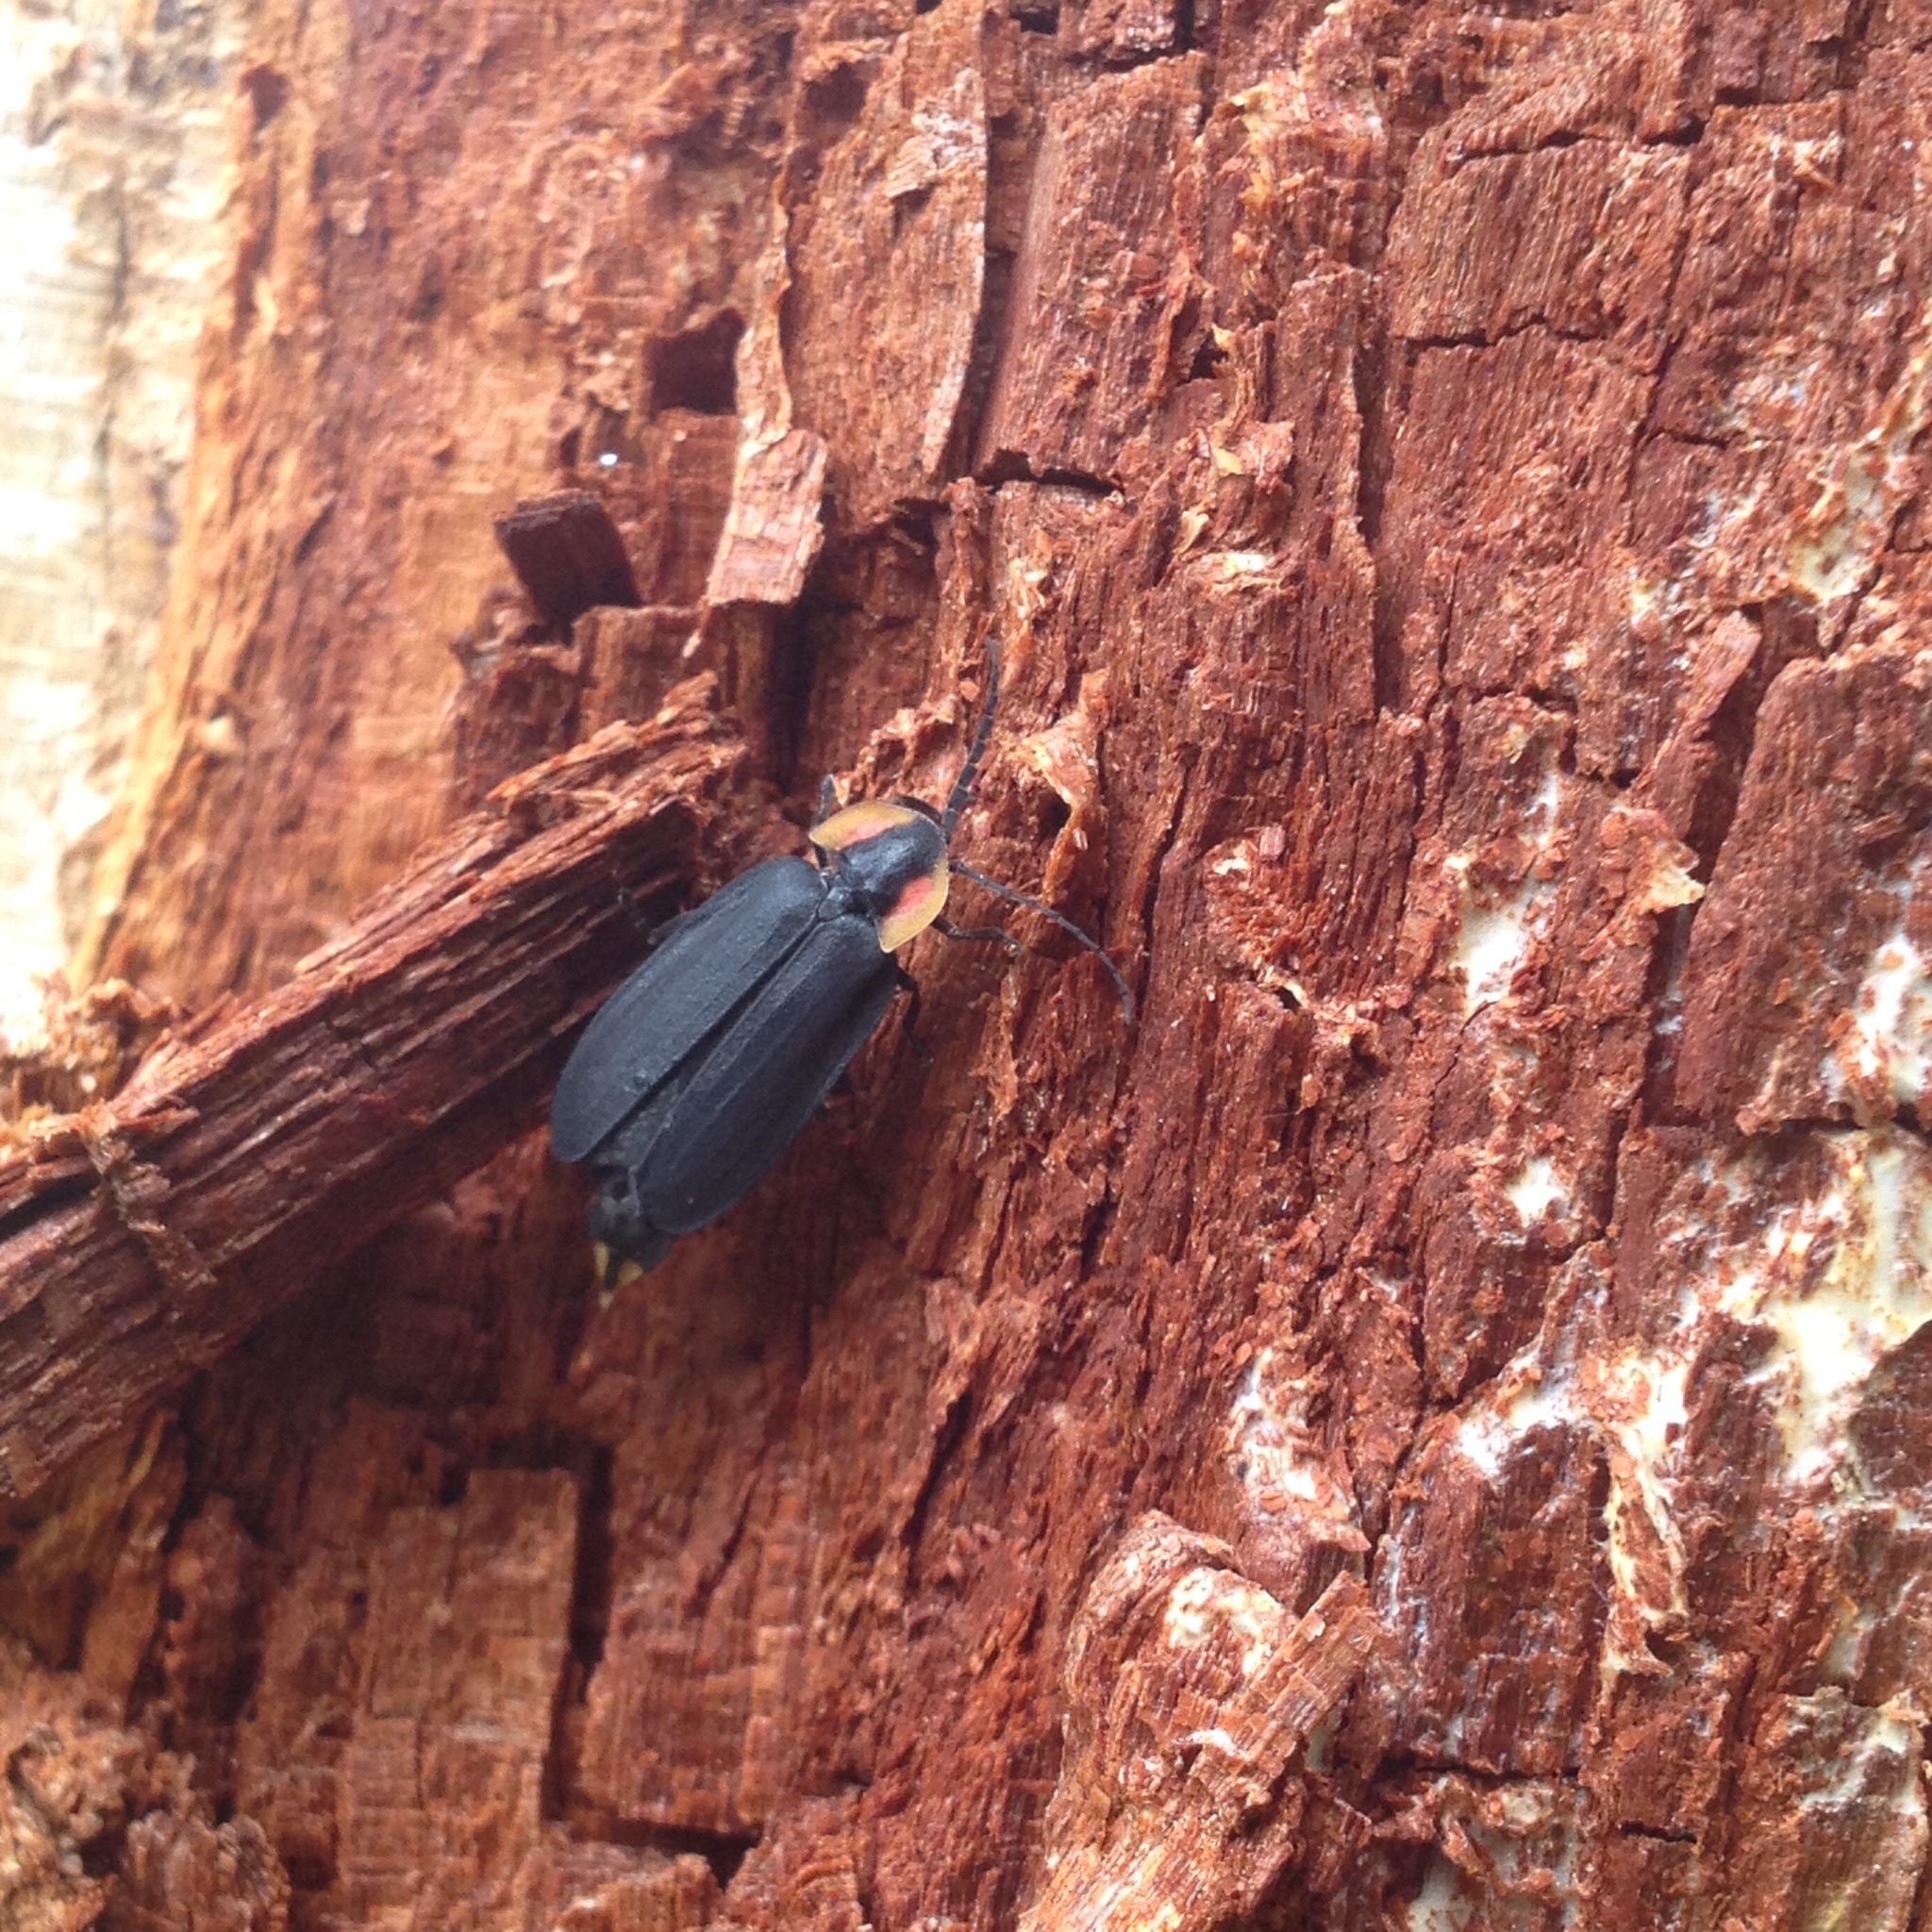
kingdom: Animalia
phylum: Arthropoda
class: Insecta
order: Coleoptera
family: Lampyridae
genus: Lucidota
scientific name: Lucidota atra
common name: Black firefly
